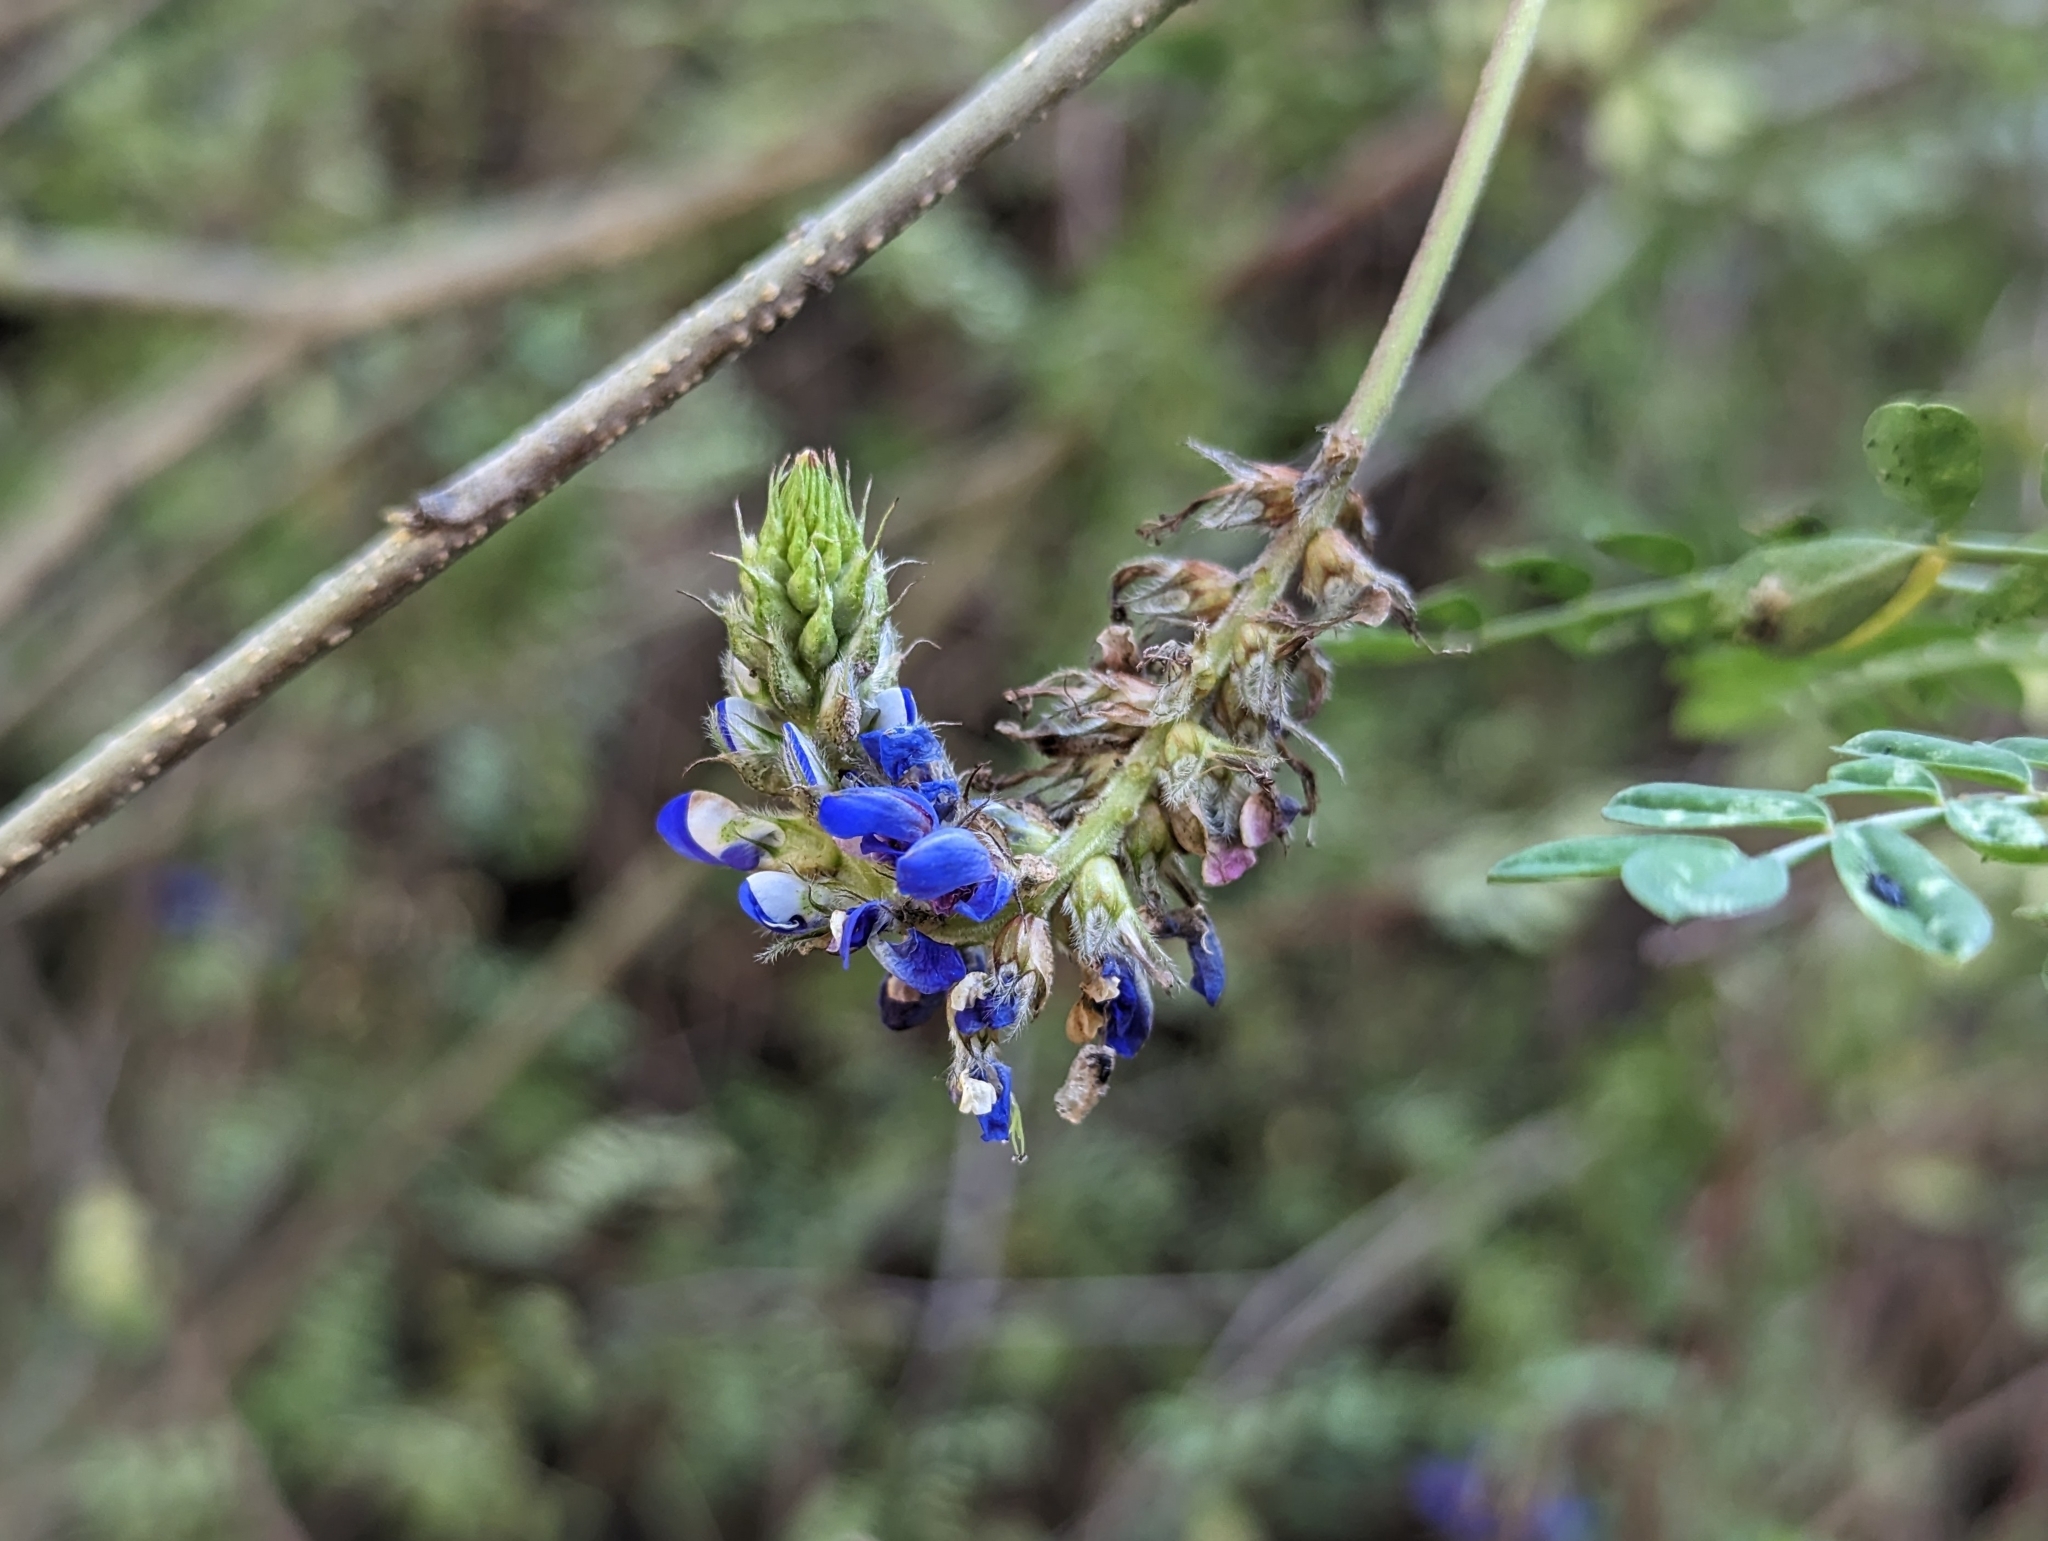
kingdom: Plantae
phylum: Tracheophyta
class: Magnoliopsida
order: Fabales
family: Fabaceae
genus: Dalea
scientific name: Dalea coerulea
